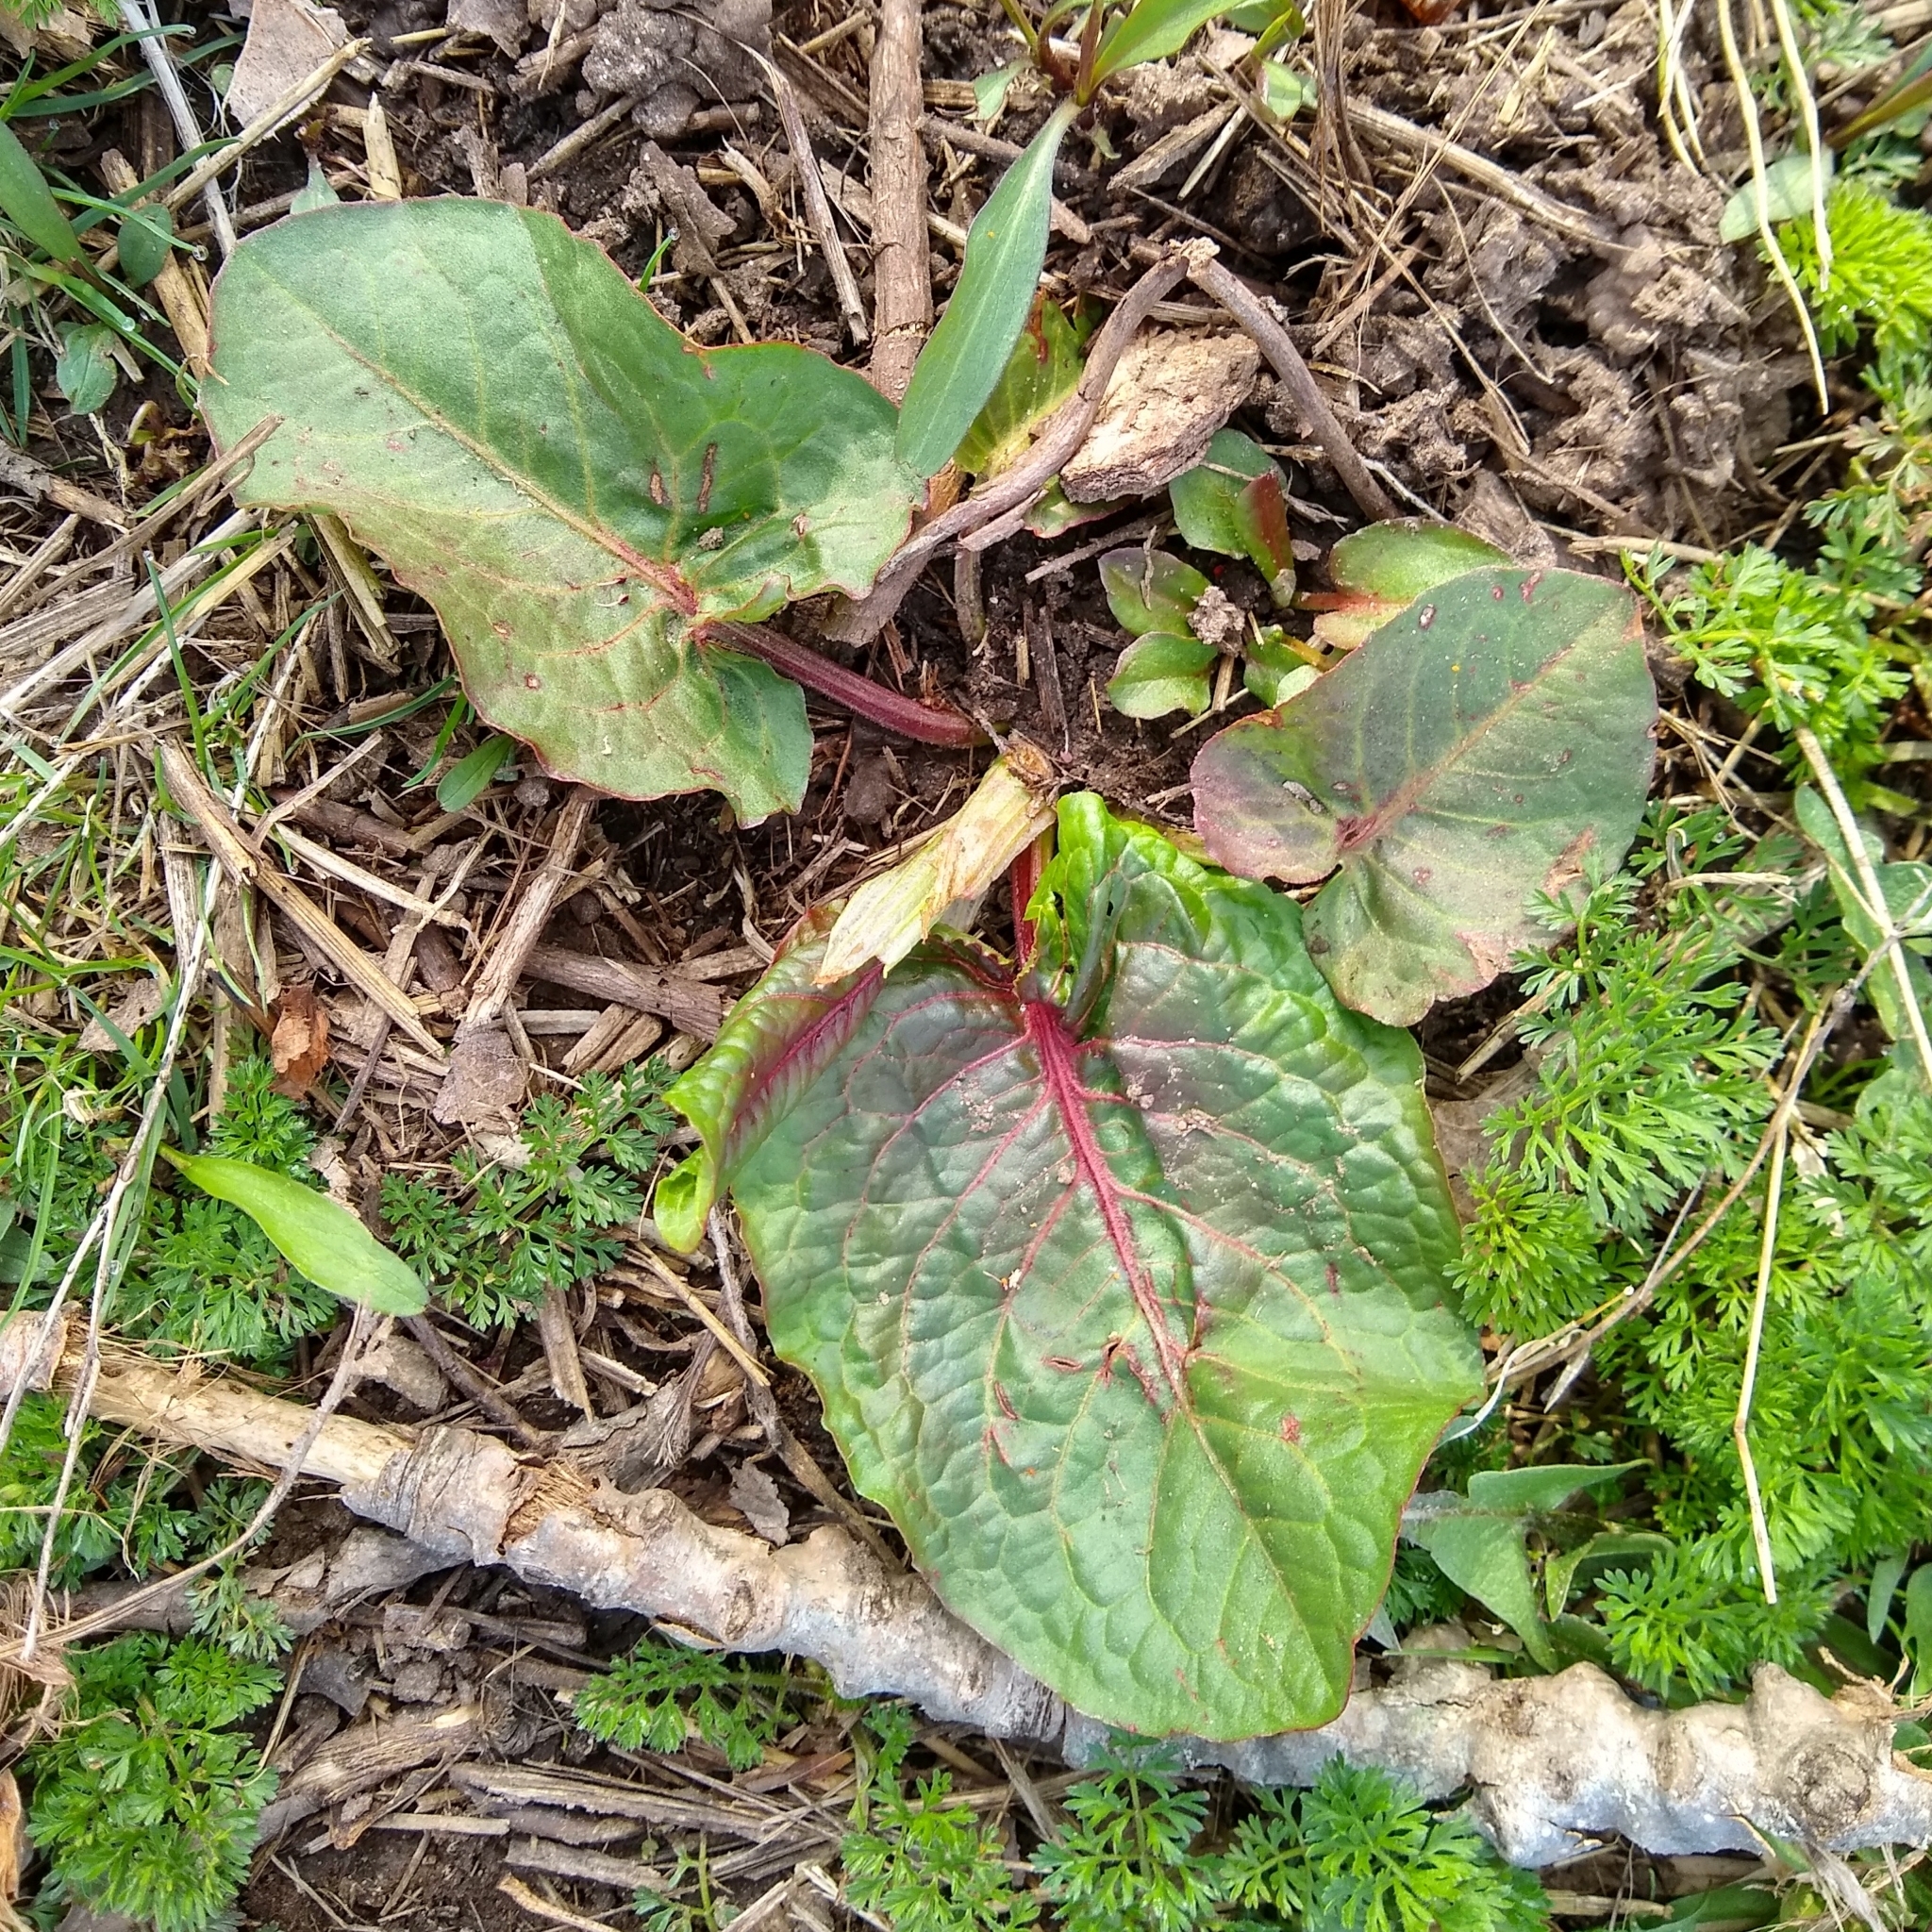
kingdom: Plantae
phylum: Tracheophyta
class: Magnoliopsida
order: Caryophyllales
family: Polygonaceae
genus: Rumex
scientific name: Rumex obtusifolius
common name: Bitter dock
